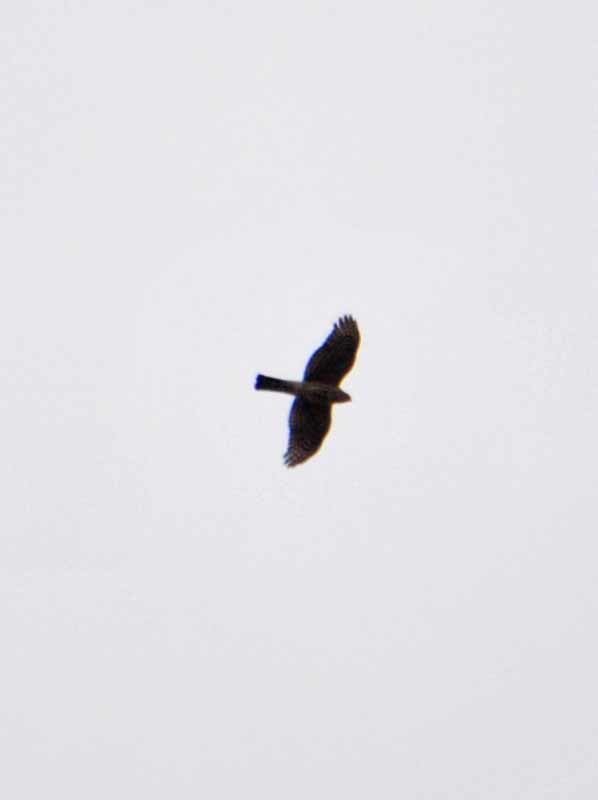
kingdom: Animalia
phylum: Chordata
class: Aves
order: Accipitriformes
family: Accipitridae
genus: Accipiter
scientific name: Accipiter striatus
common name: Sharp-shinned hawk
